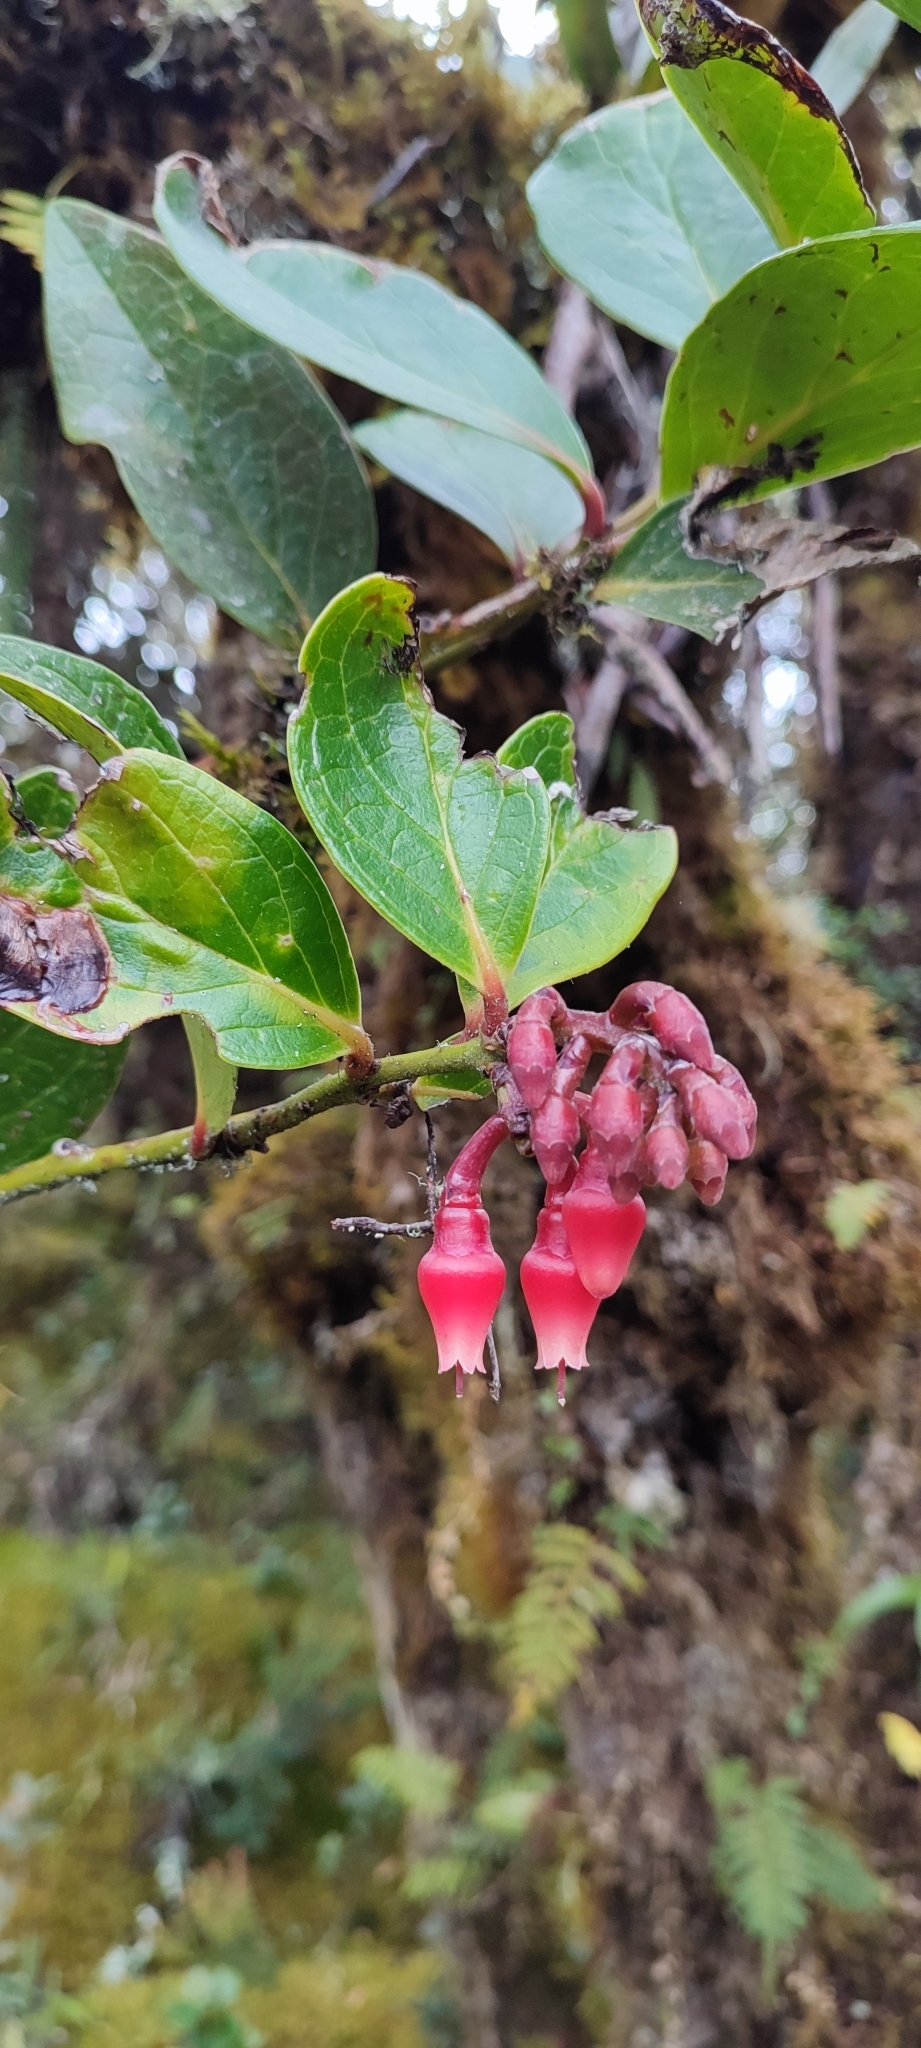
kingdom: Plantae
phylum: Tracheophyta
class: Magnoliopsida
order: Ericales
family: Ericaceae
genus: Macleania
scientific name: Macleania rupestris
